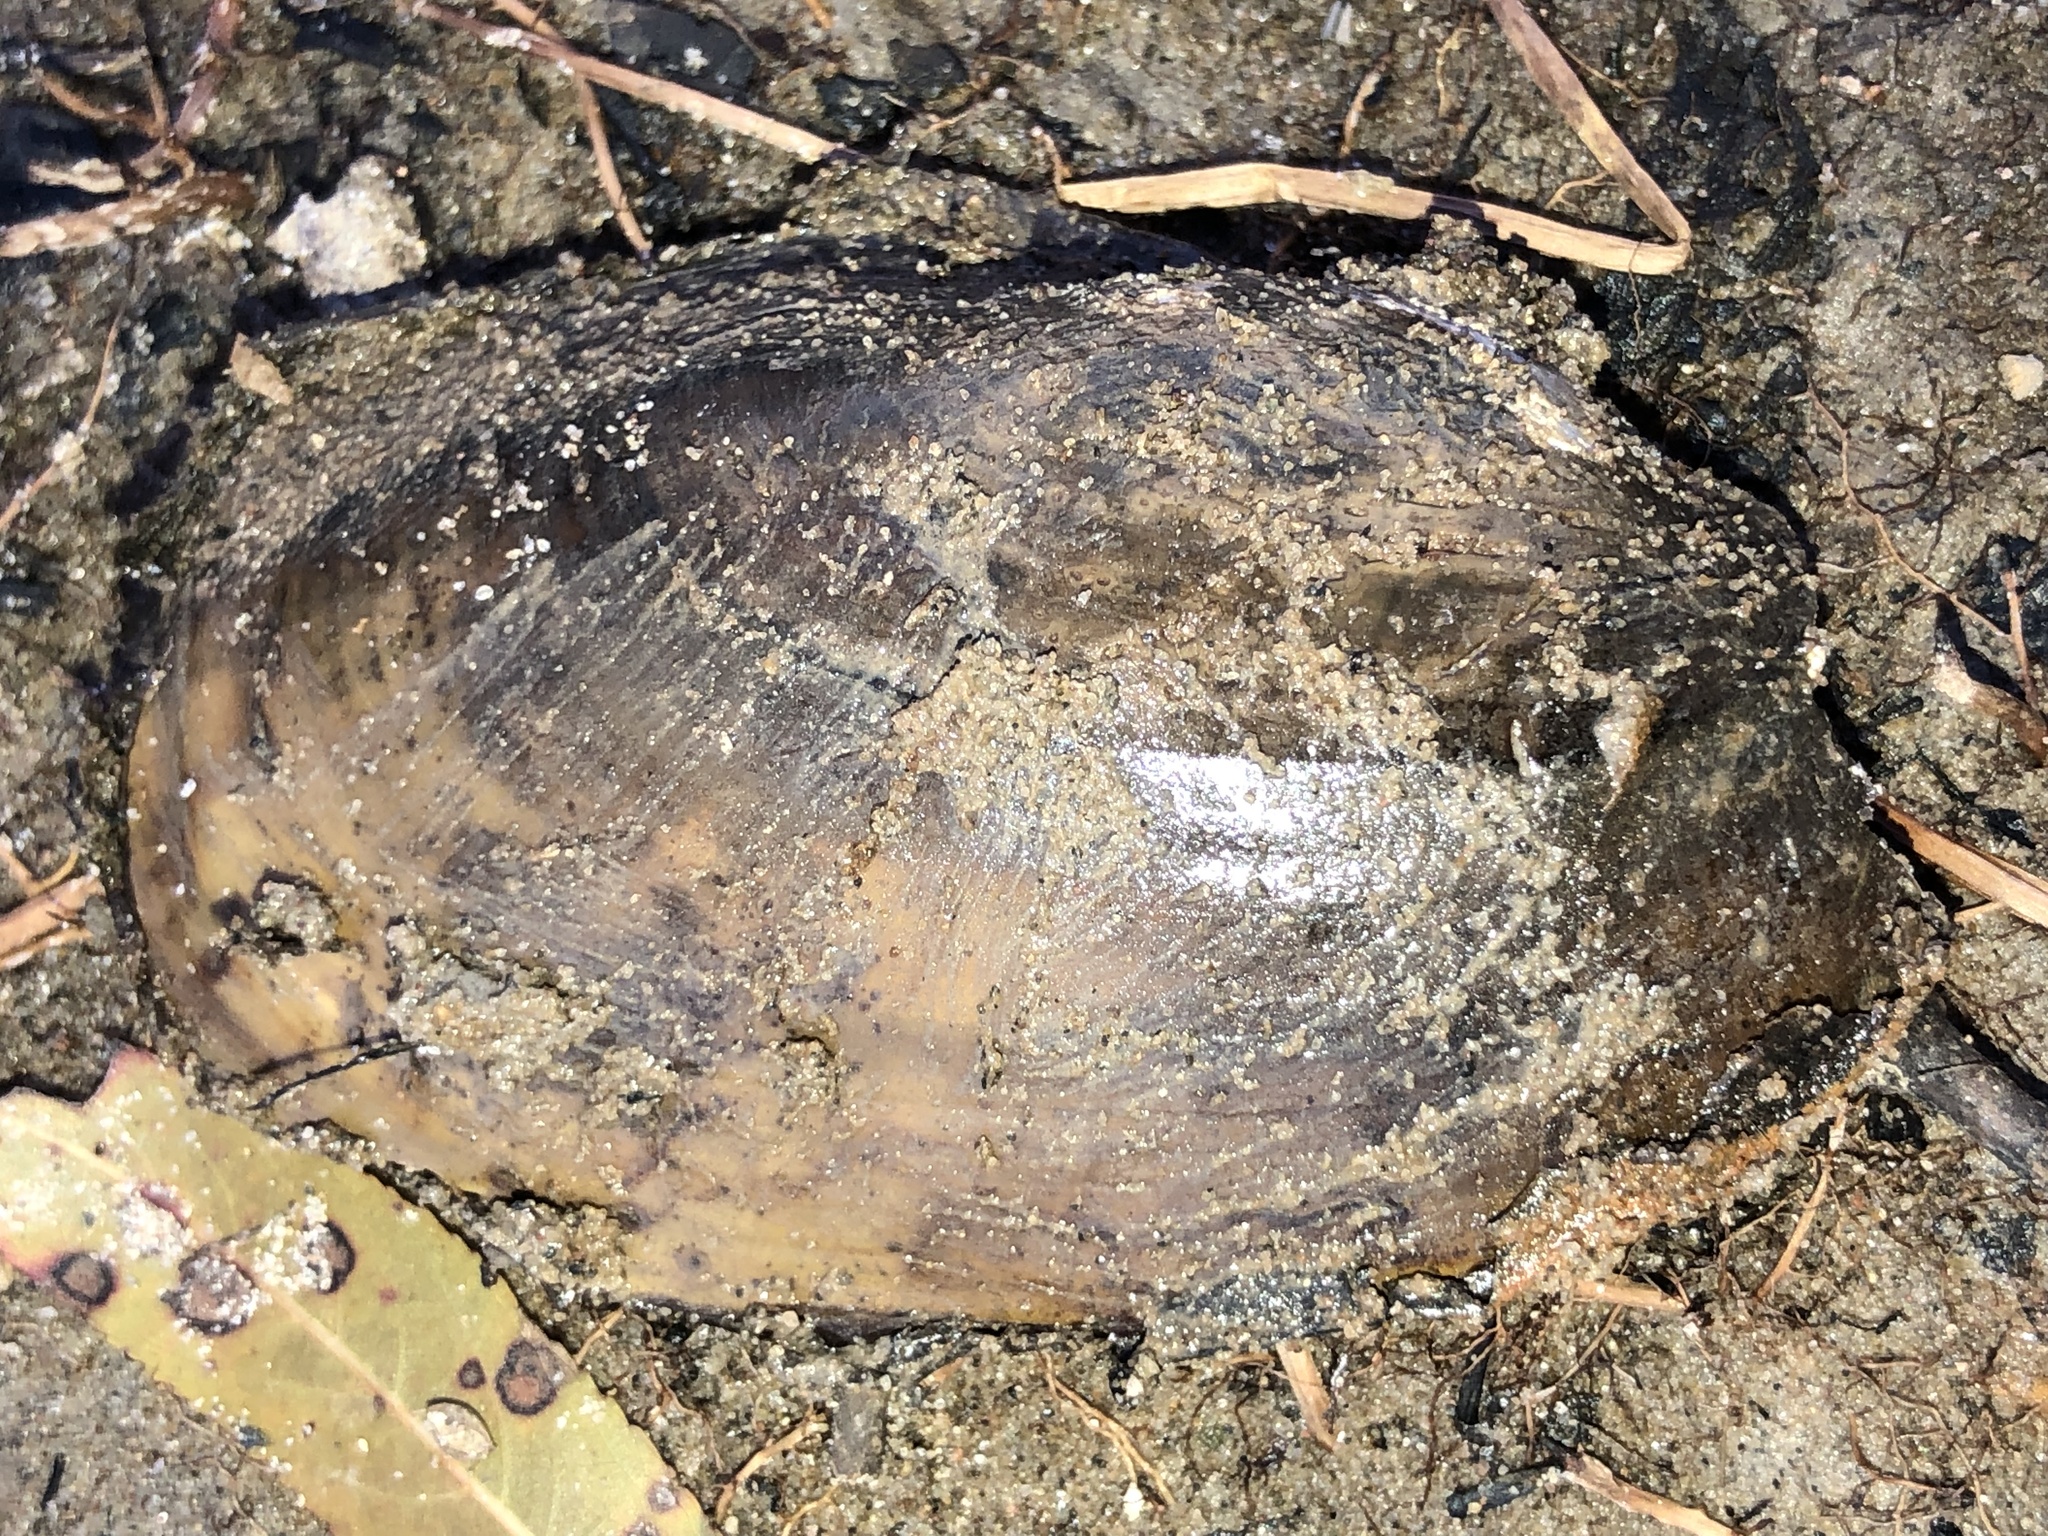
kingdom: Animalia
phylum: Mollusca
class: Bivalvia
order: Unionida
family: Unionidae
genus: Potamilus
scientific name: Potamilus fragilis
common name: Fragile papershell
